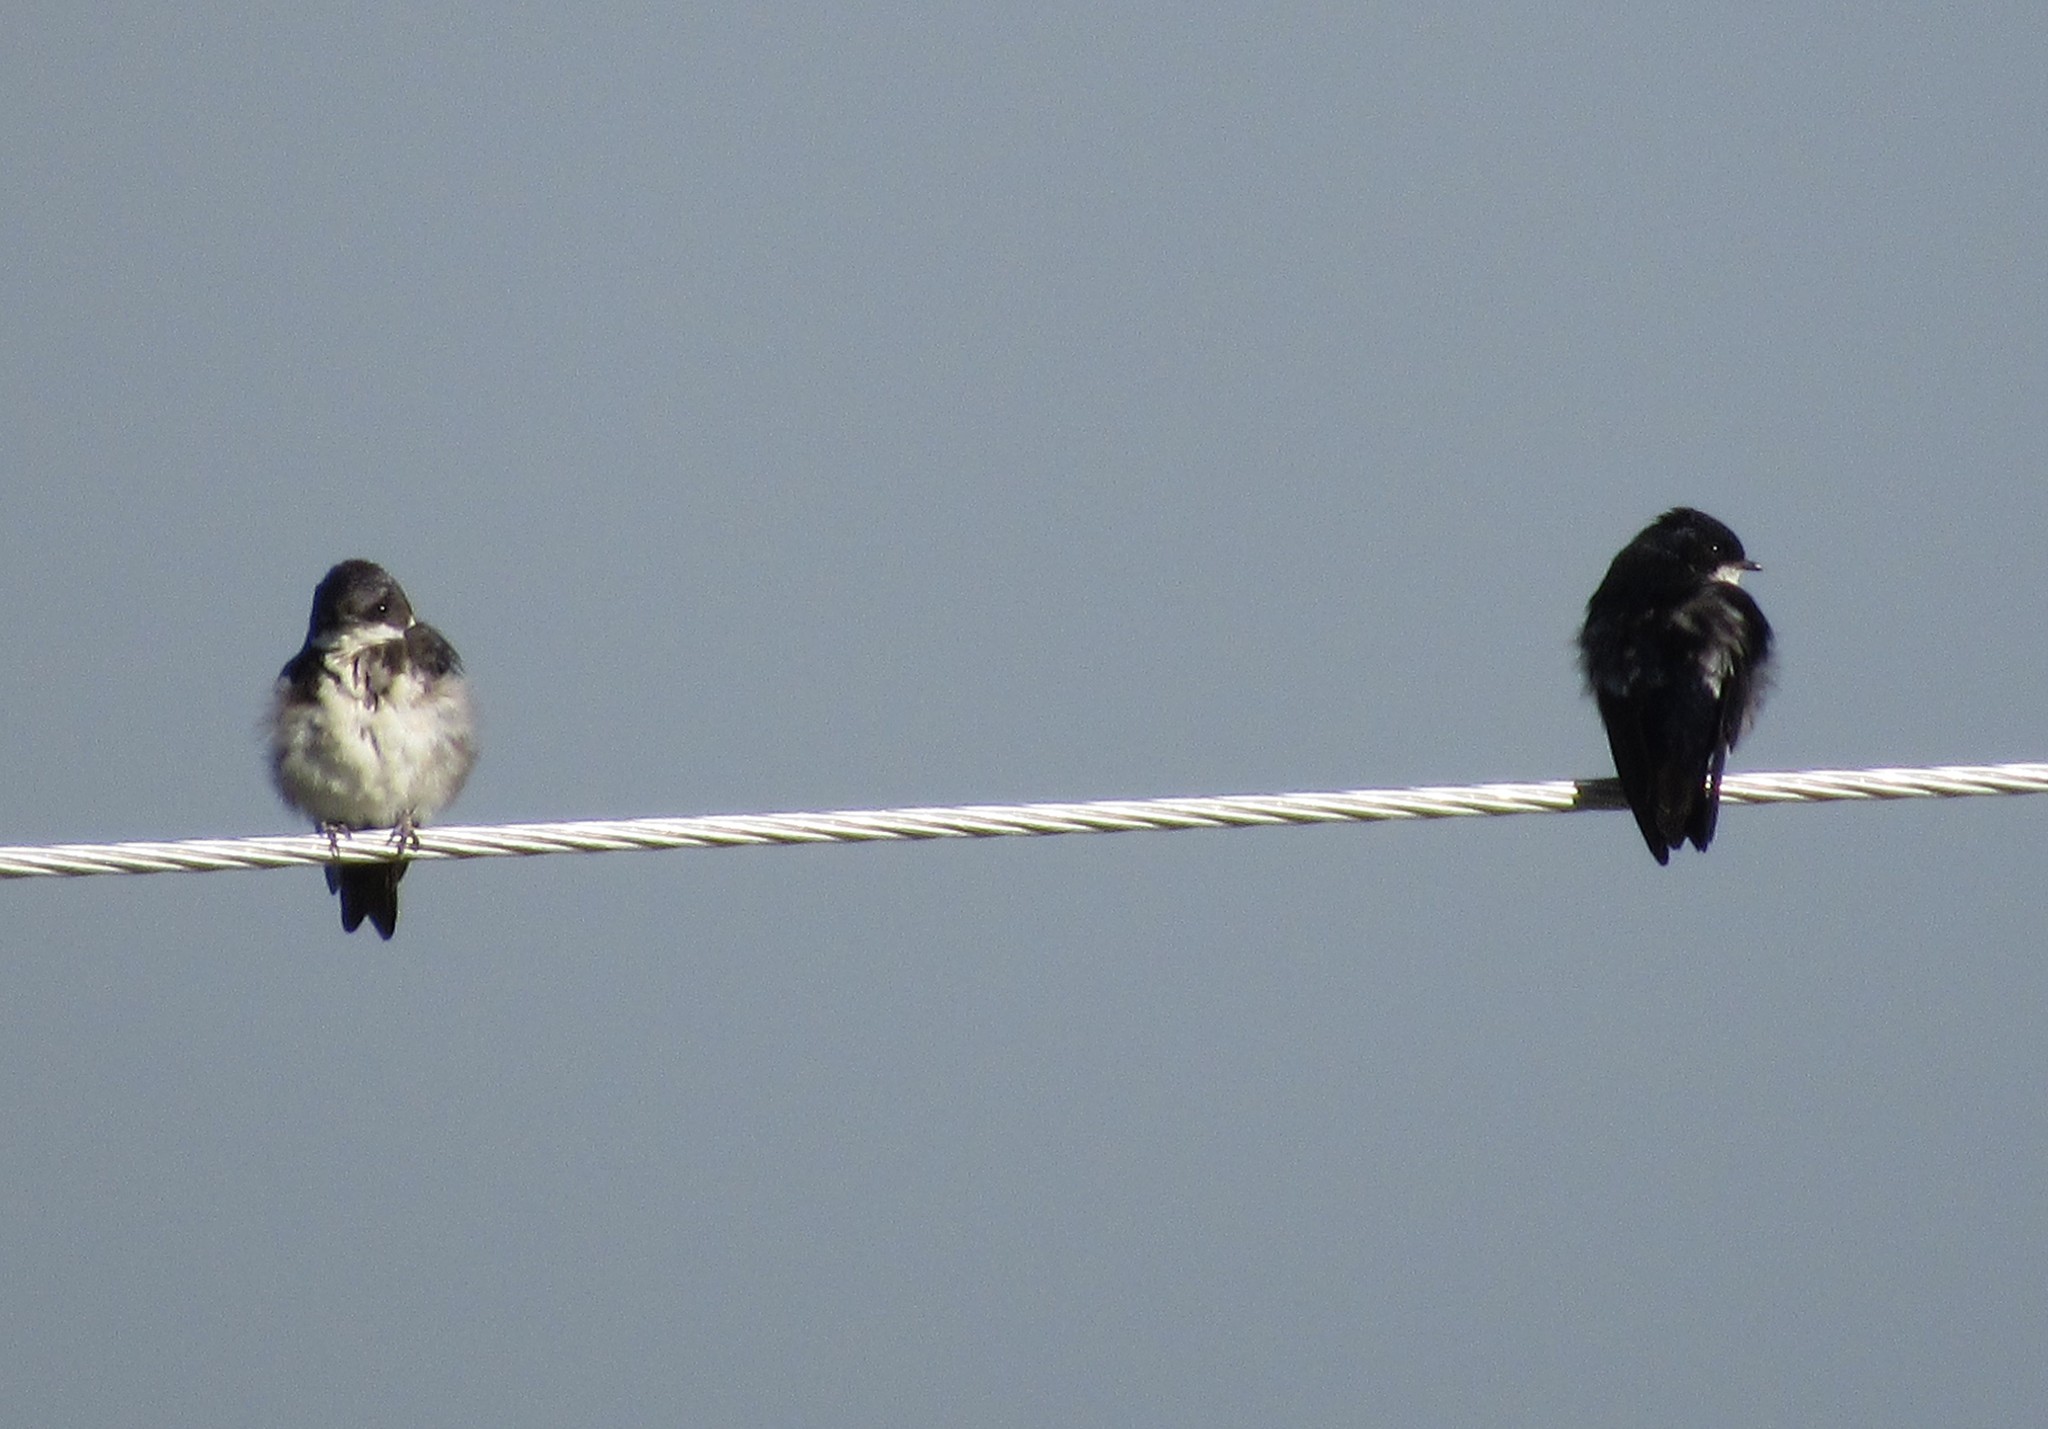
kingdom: Animalia
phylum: Chordata
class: Aves
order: Passeriformes
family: Hirundinidae
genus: Notiochelidon
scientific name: Notiochelidon cyanoleuca
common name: Blue-and-white swallow
